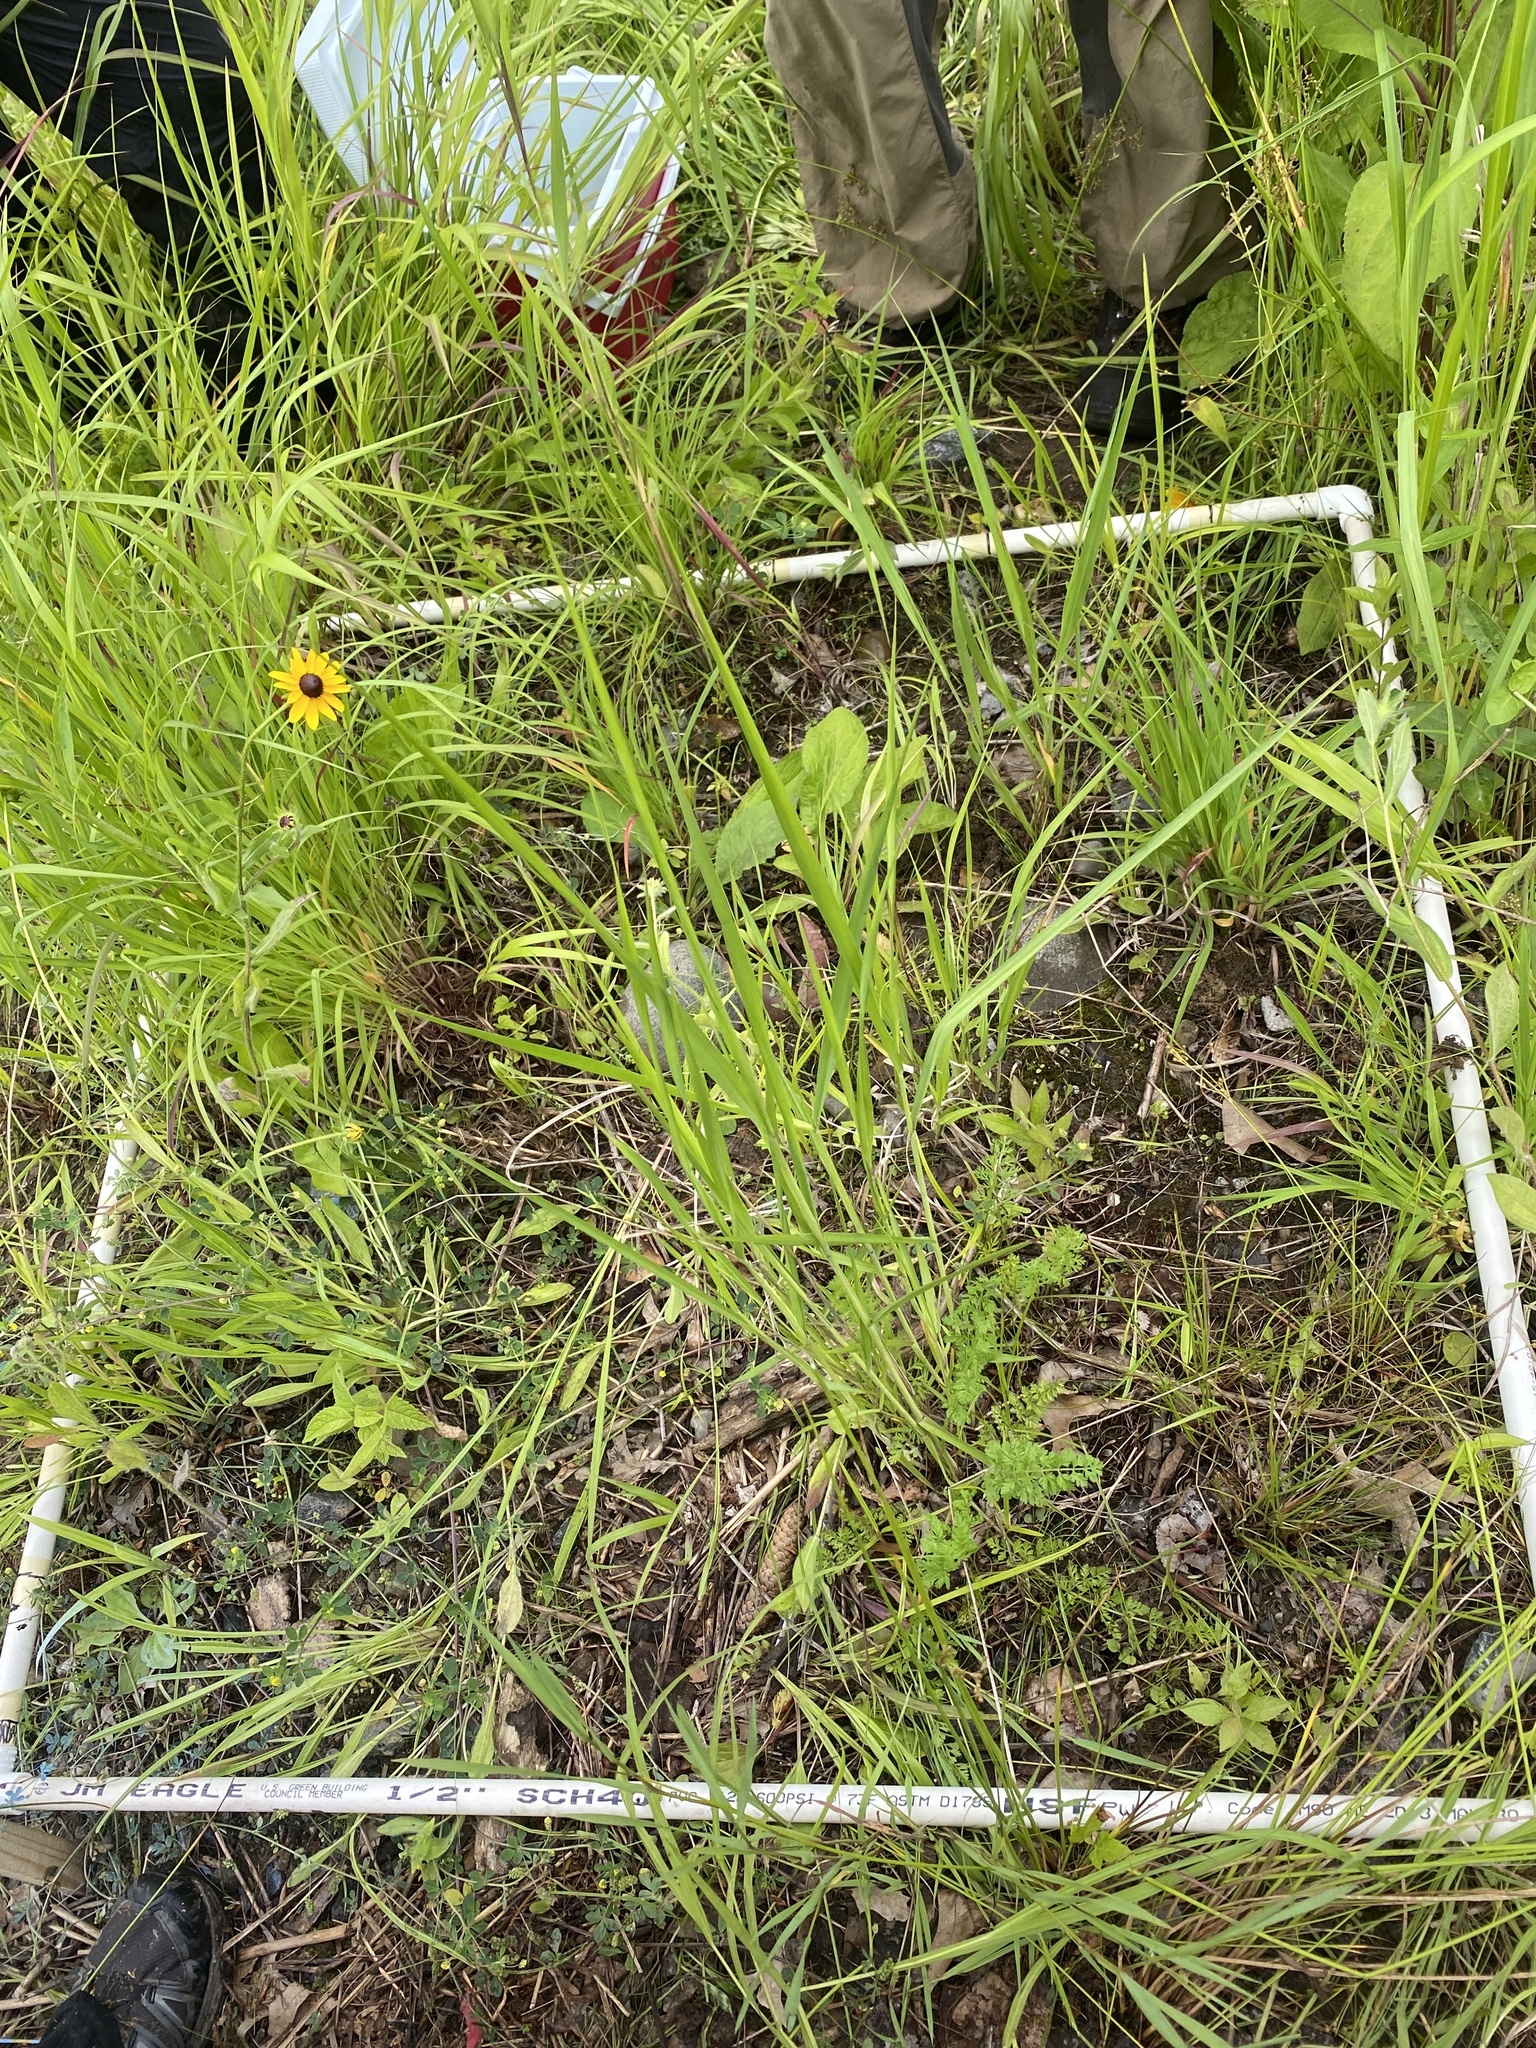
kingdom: Plantae
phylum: Tracheophyta
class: Magnoliopsida
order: Fabales
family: Fabaceae
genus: Trifolium
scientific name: Trifolium arvense
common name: Hare's-foot clover
